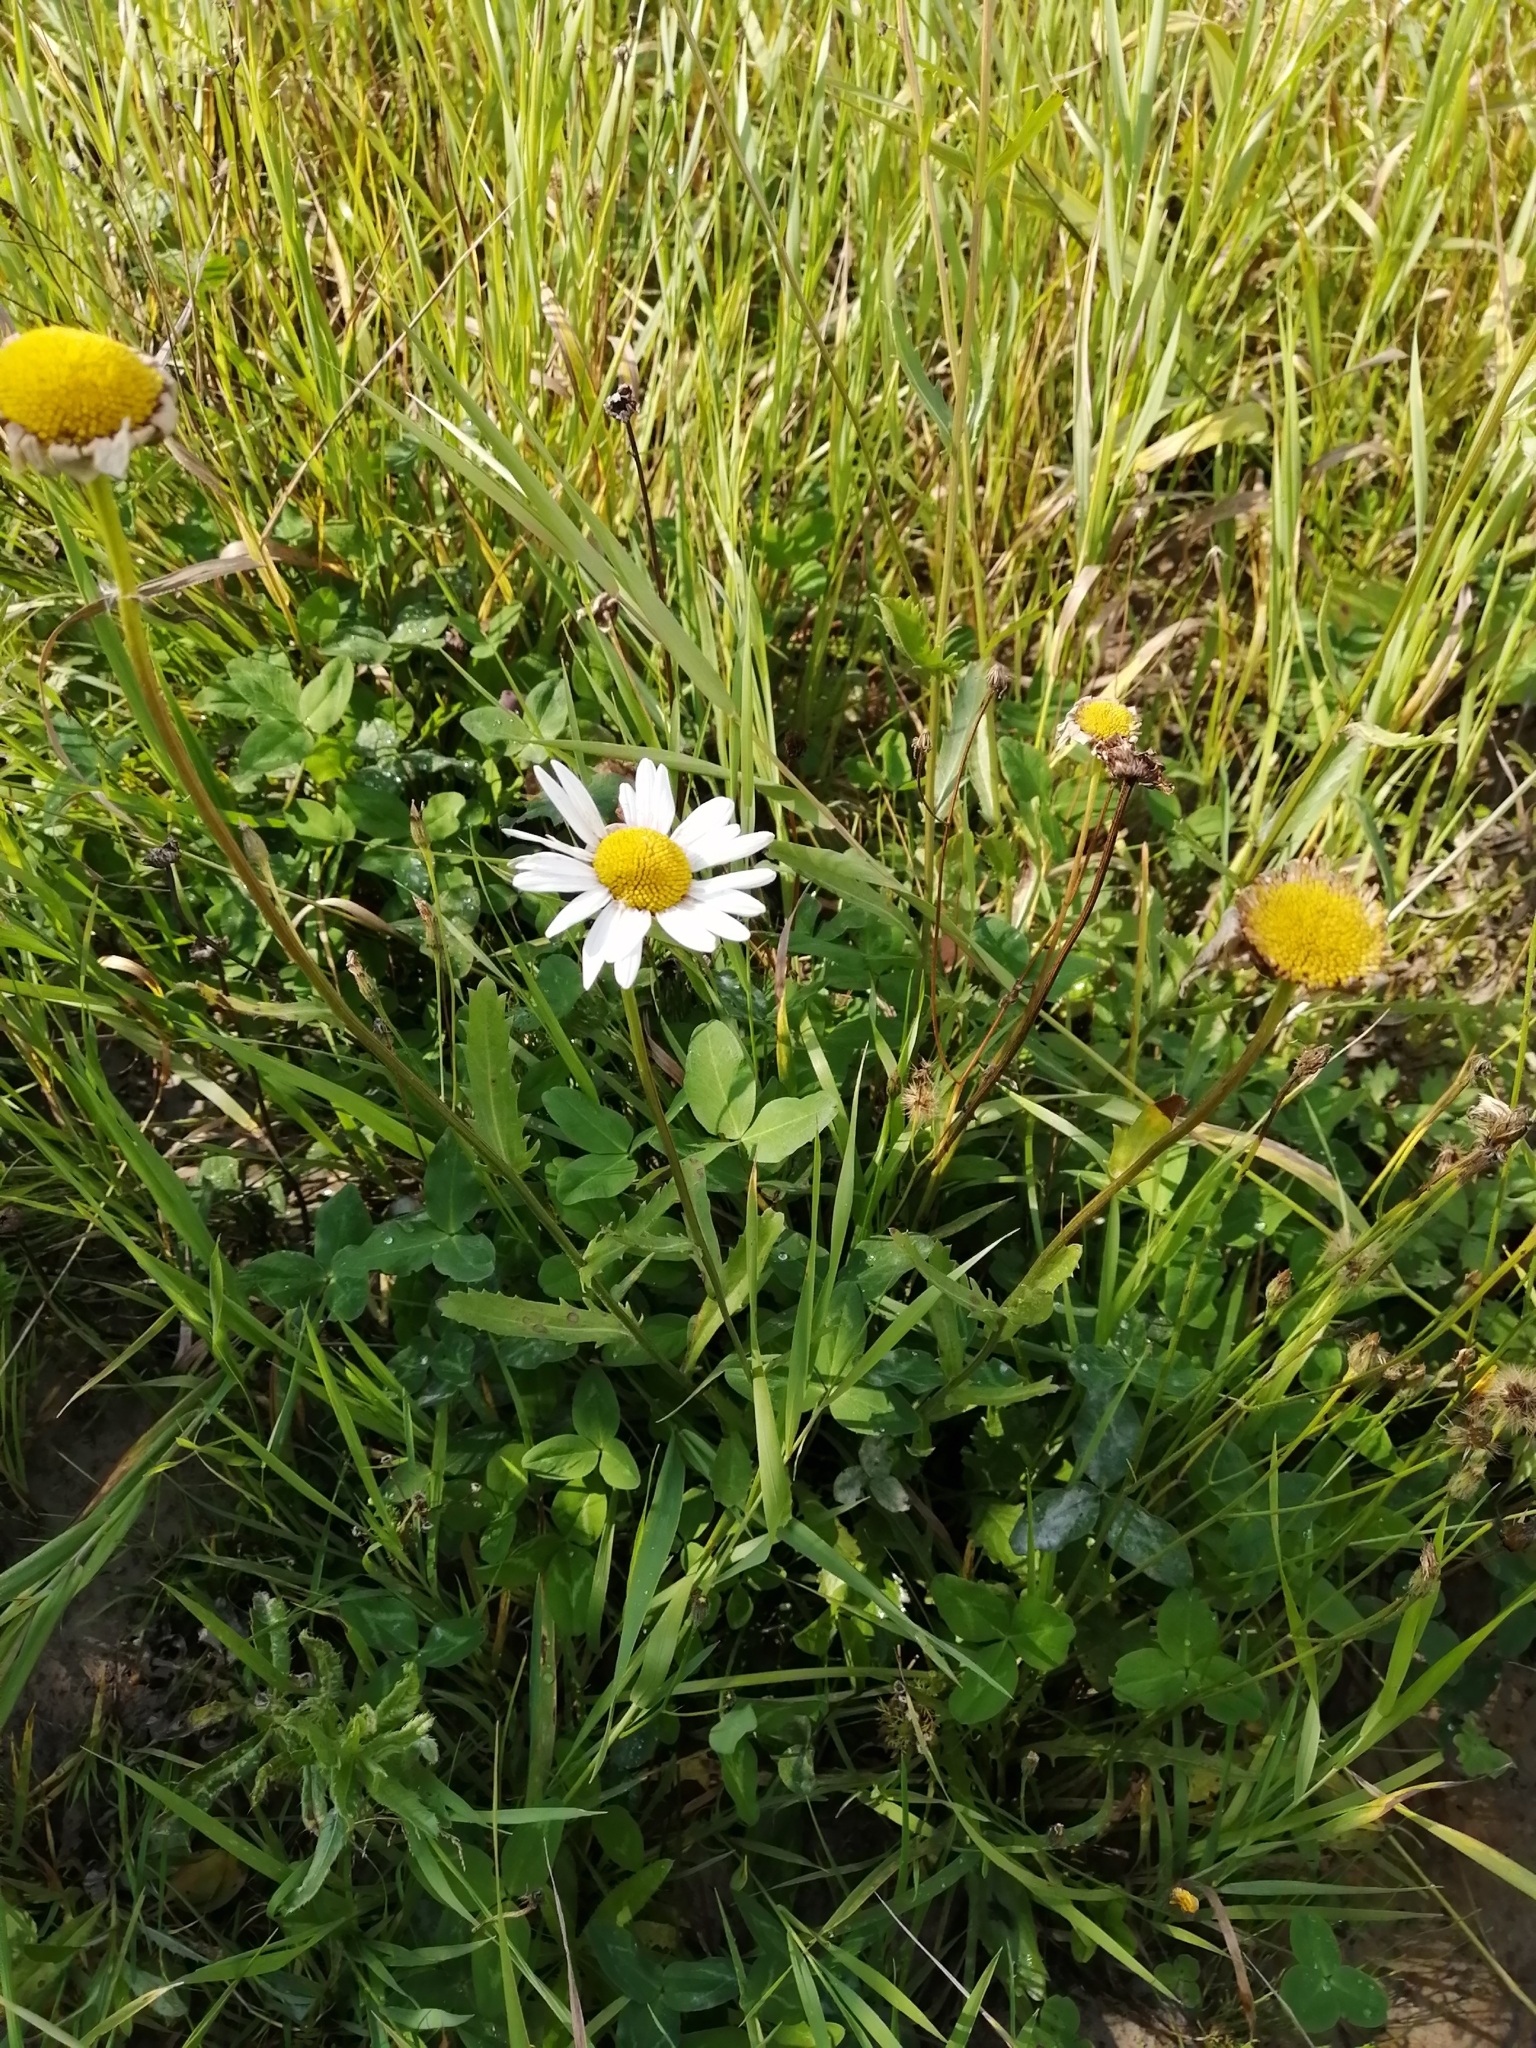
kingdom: Plantae
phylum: Tracheophyta
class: Magnoliopsida
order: Asterales
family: Asteraceae
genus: Leucanthemum
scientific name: Leucanthemum ircutianum
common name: Daisy
